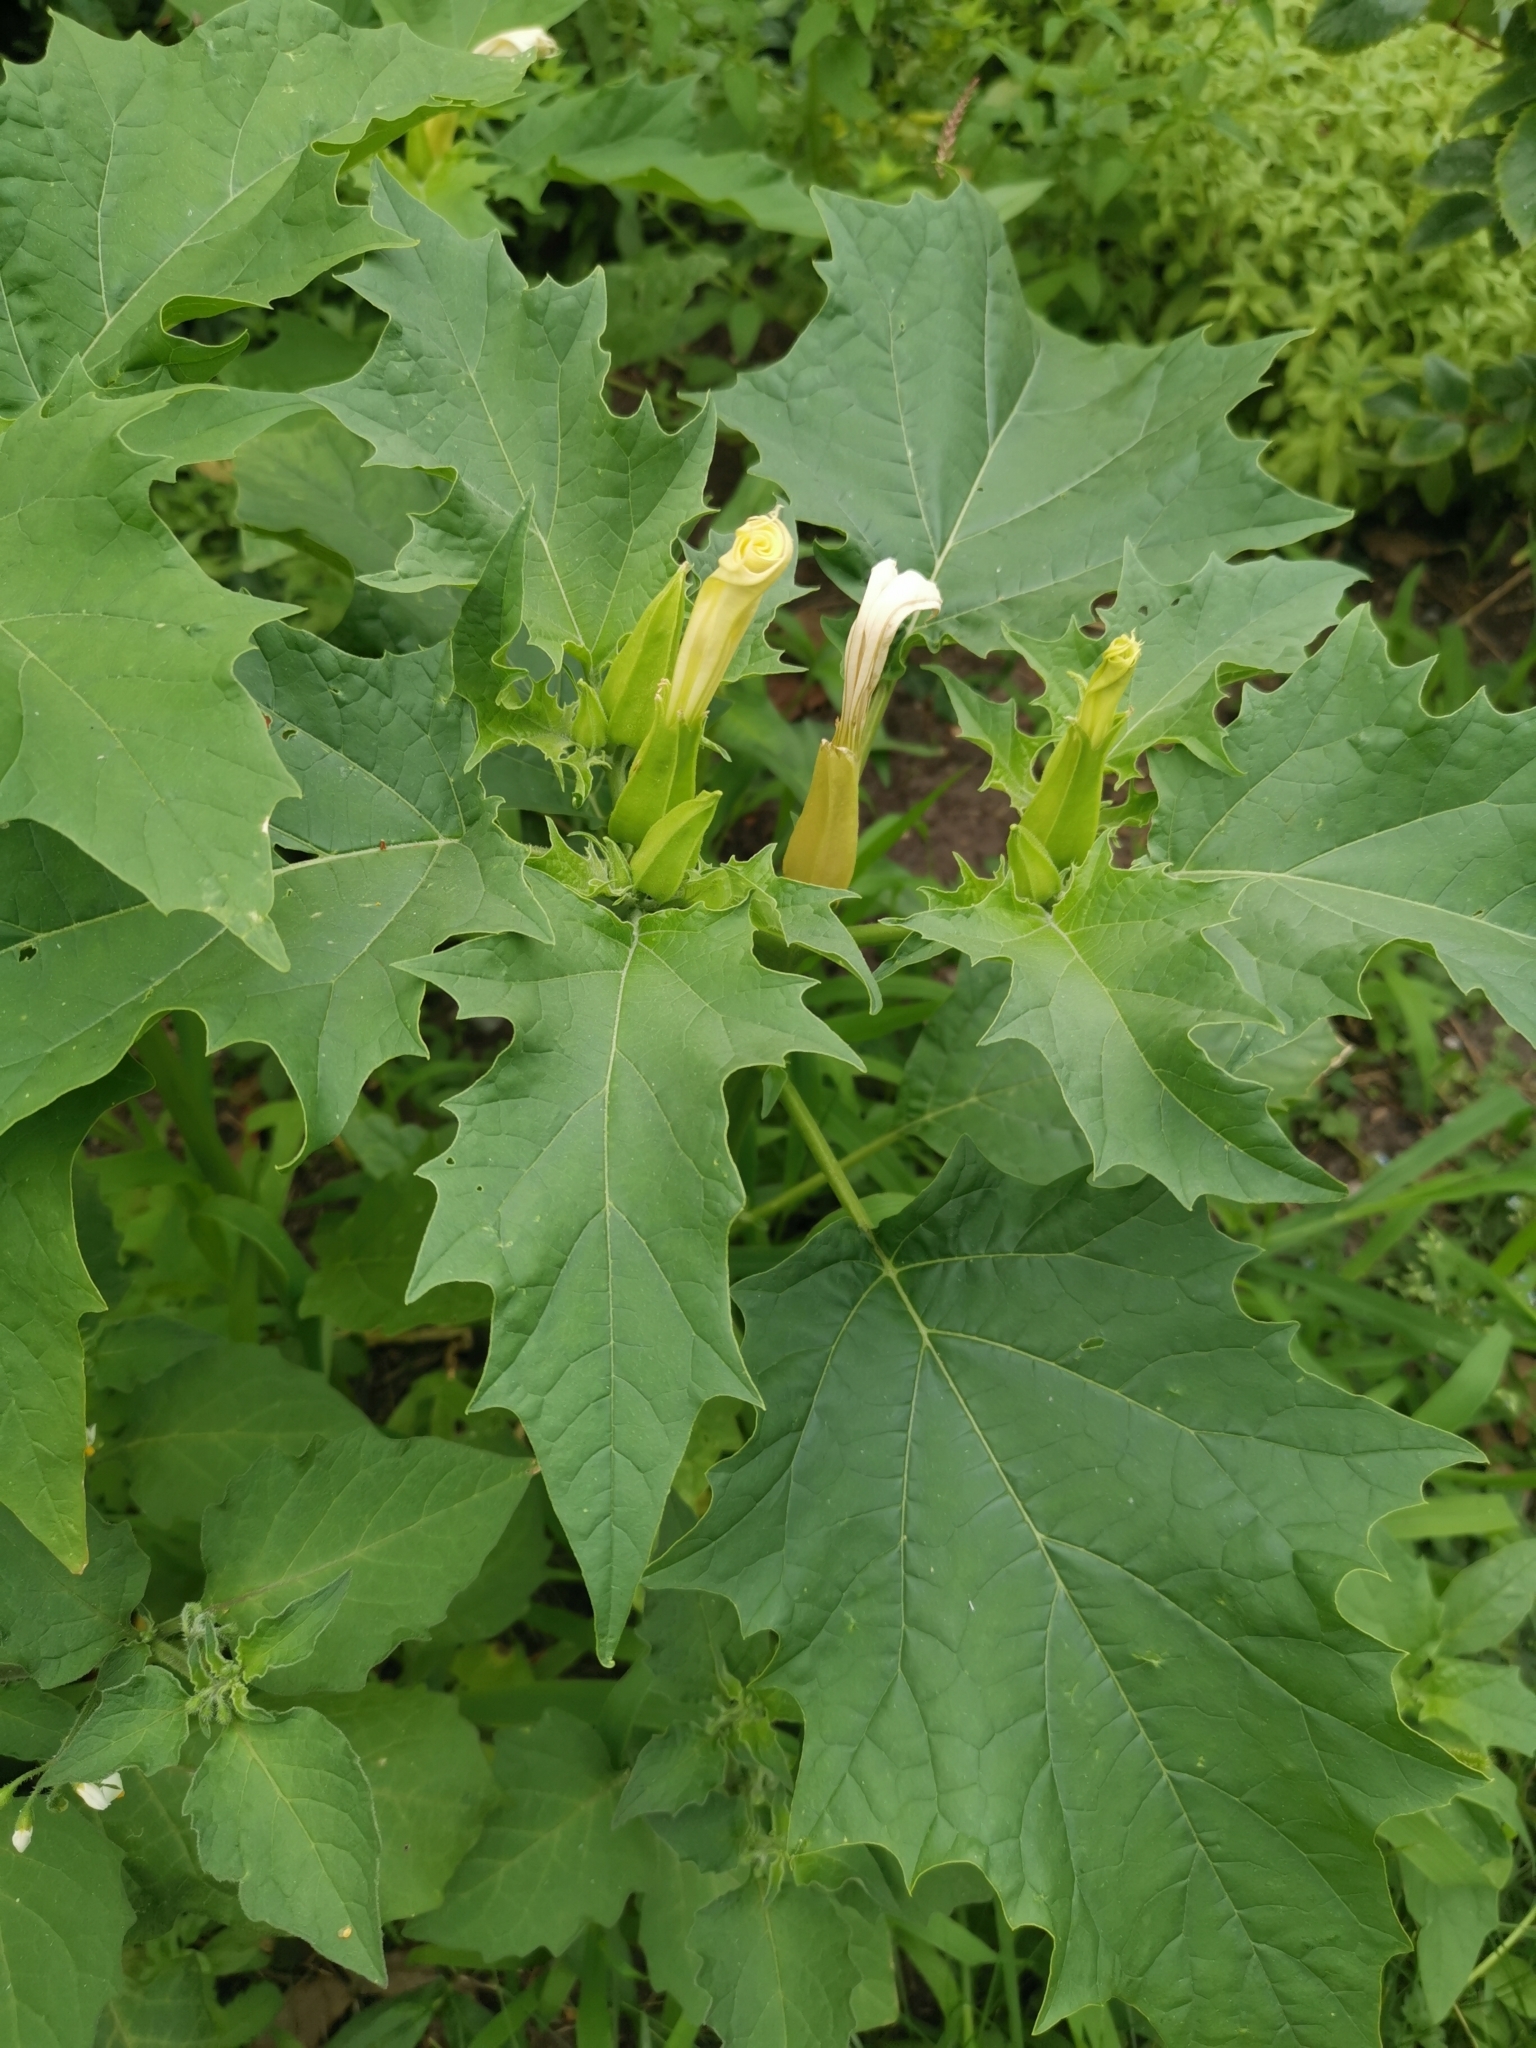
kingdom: Plantae
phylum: Tracheophyta
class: Magnoliopsida
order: Solanales
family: Solanaceae
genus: Datura
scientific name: Datura stramonium
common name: Thorn-apple
